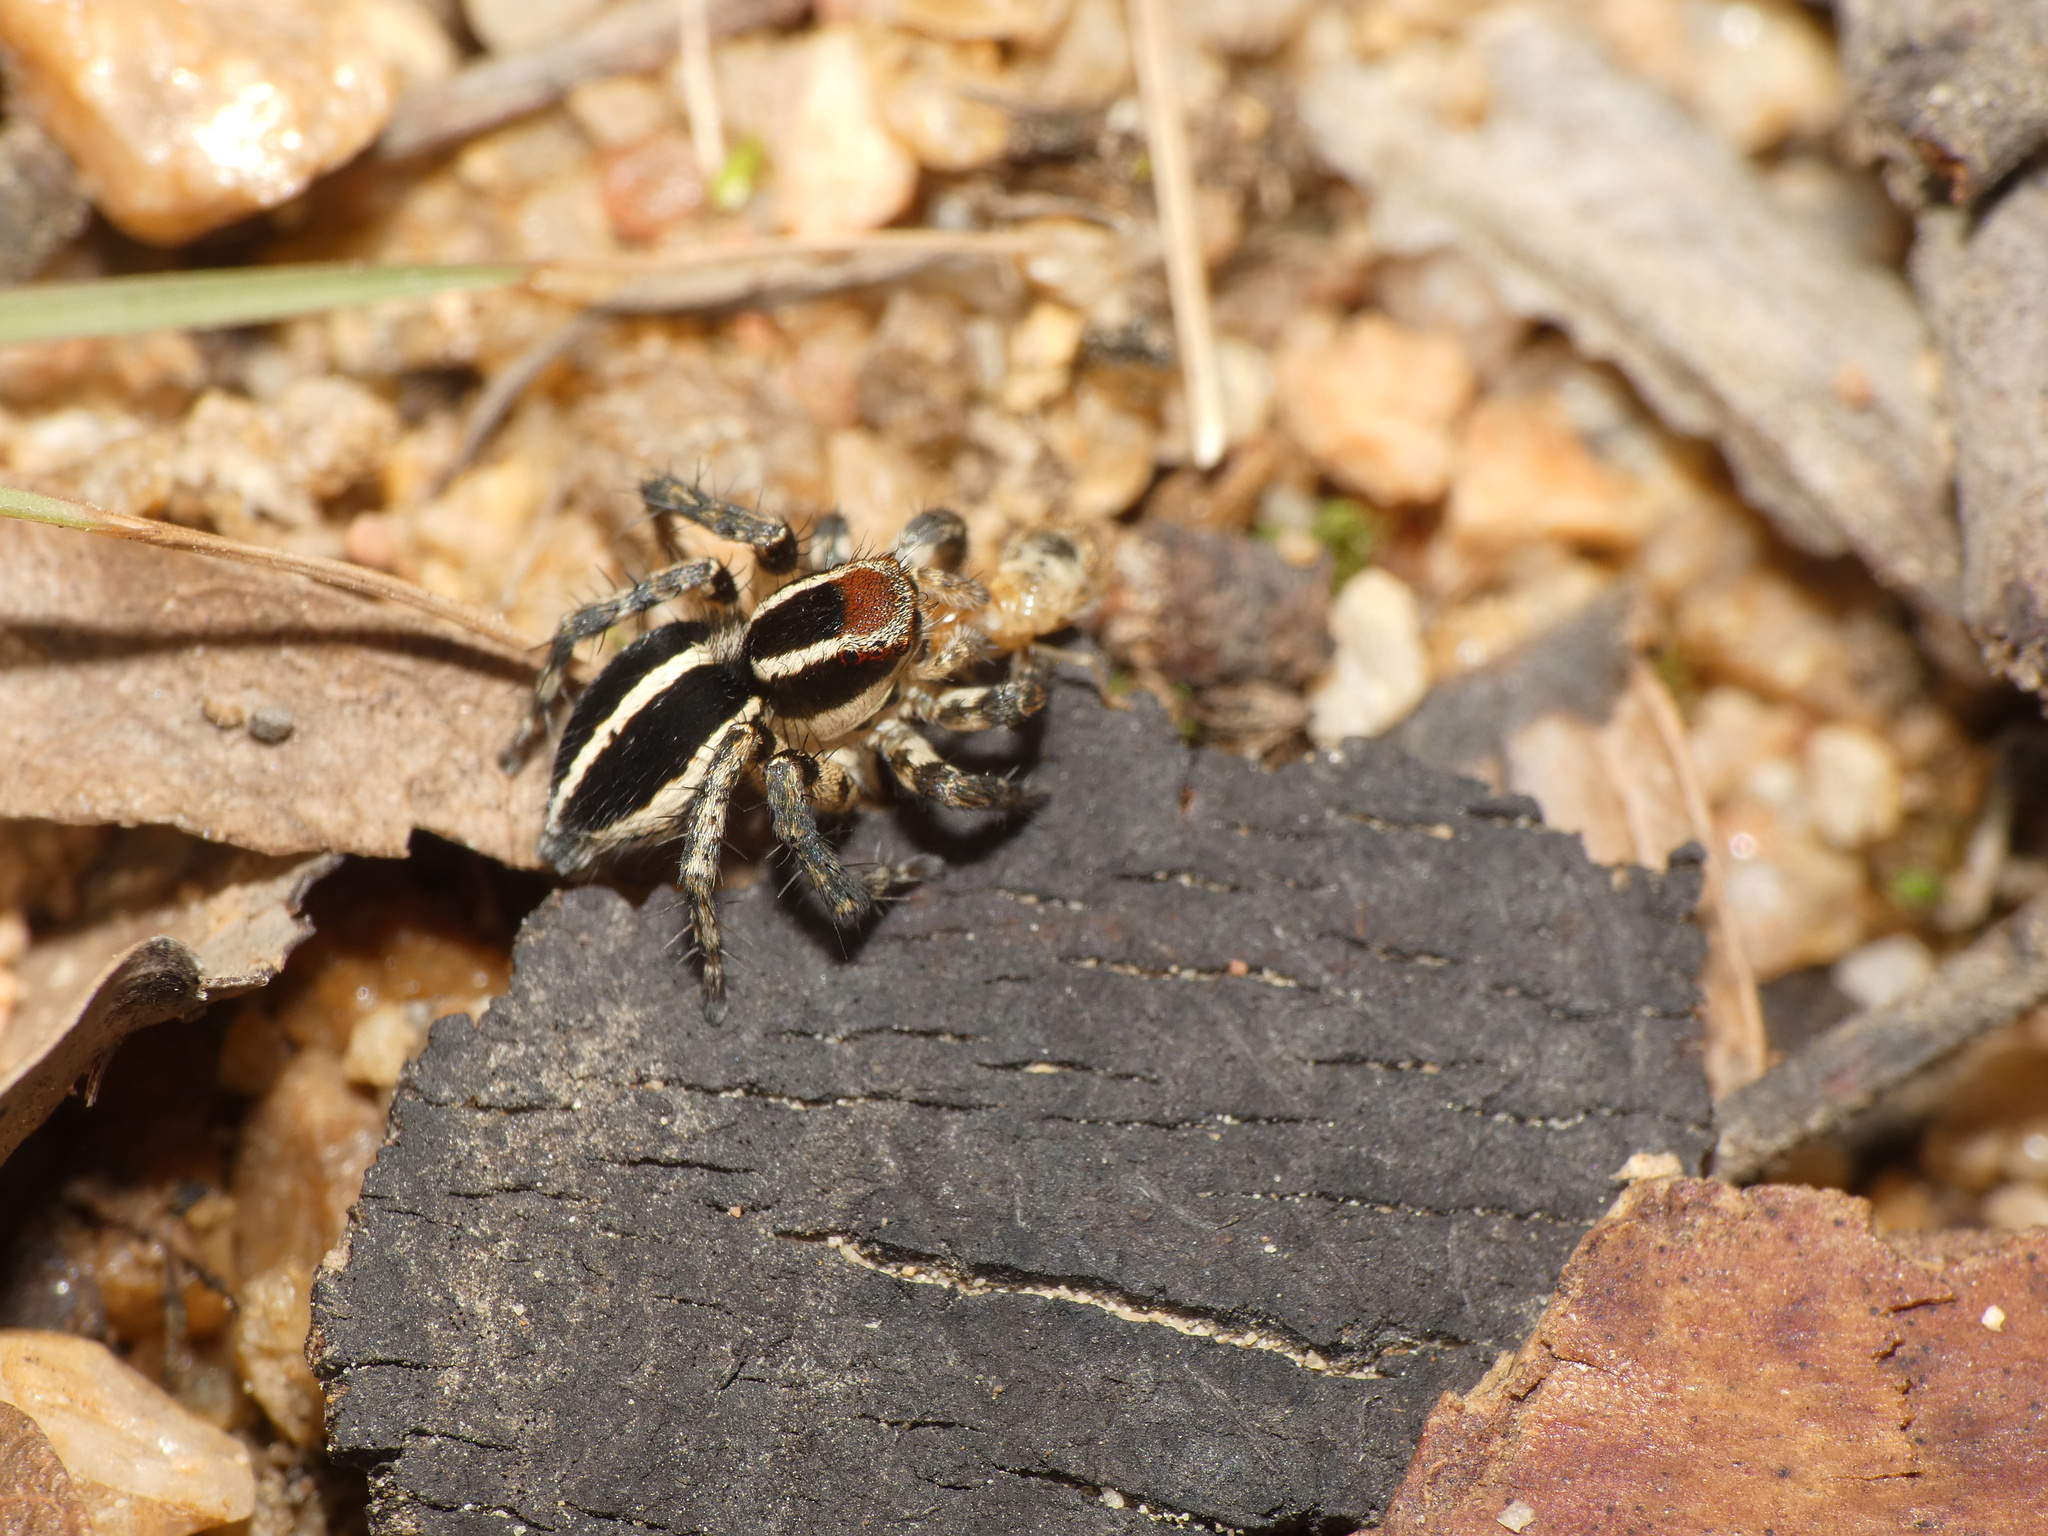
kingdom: Animalia
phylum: Arthropoda
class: Arachnida
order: Araneae
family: Salticidae
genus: Stenaelurillus
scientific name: Stenaelurillus termitophagus
